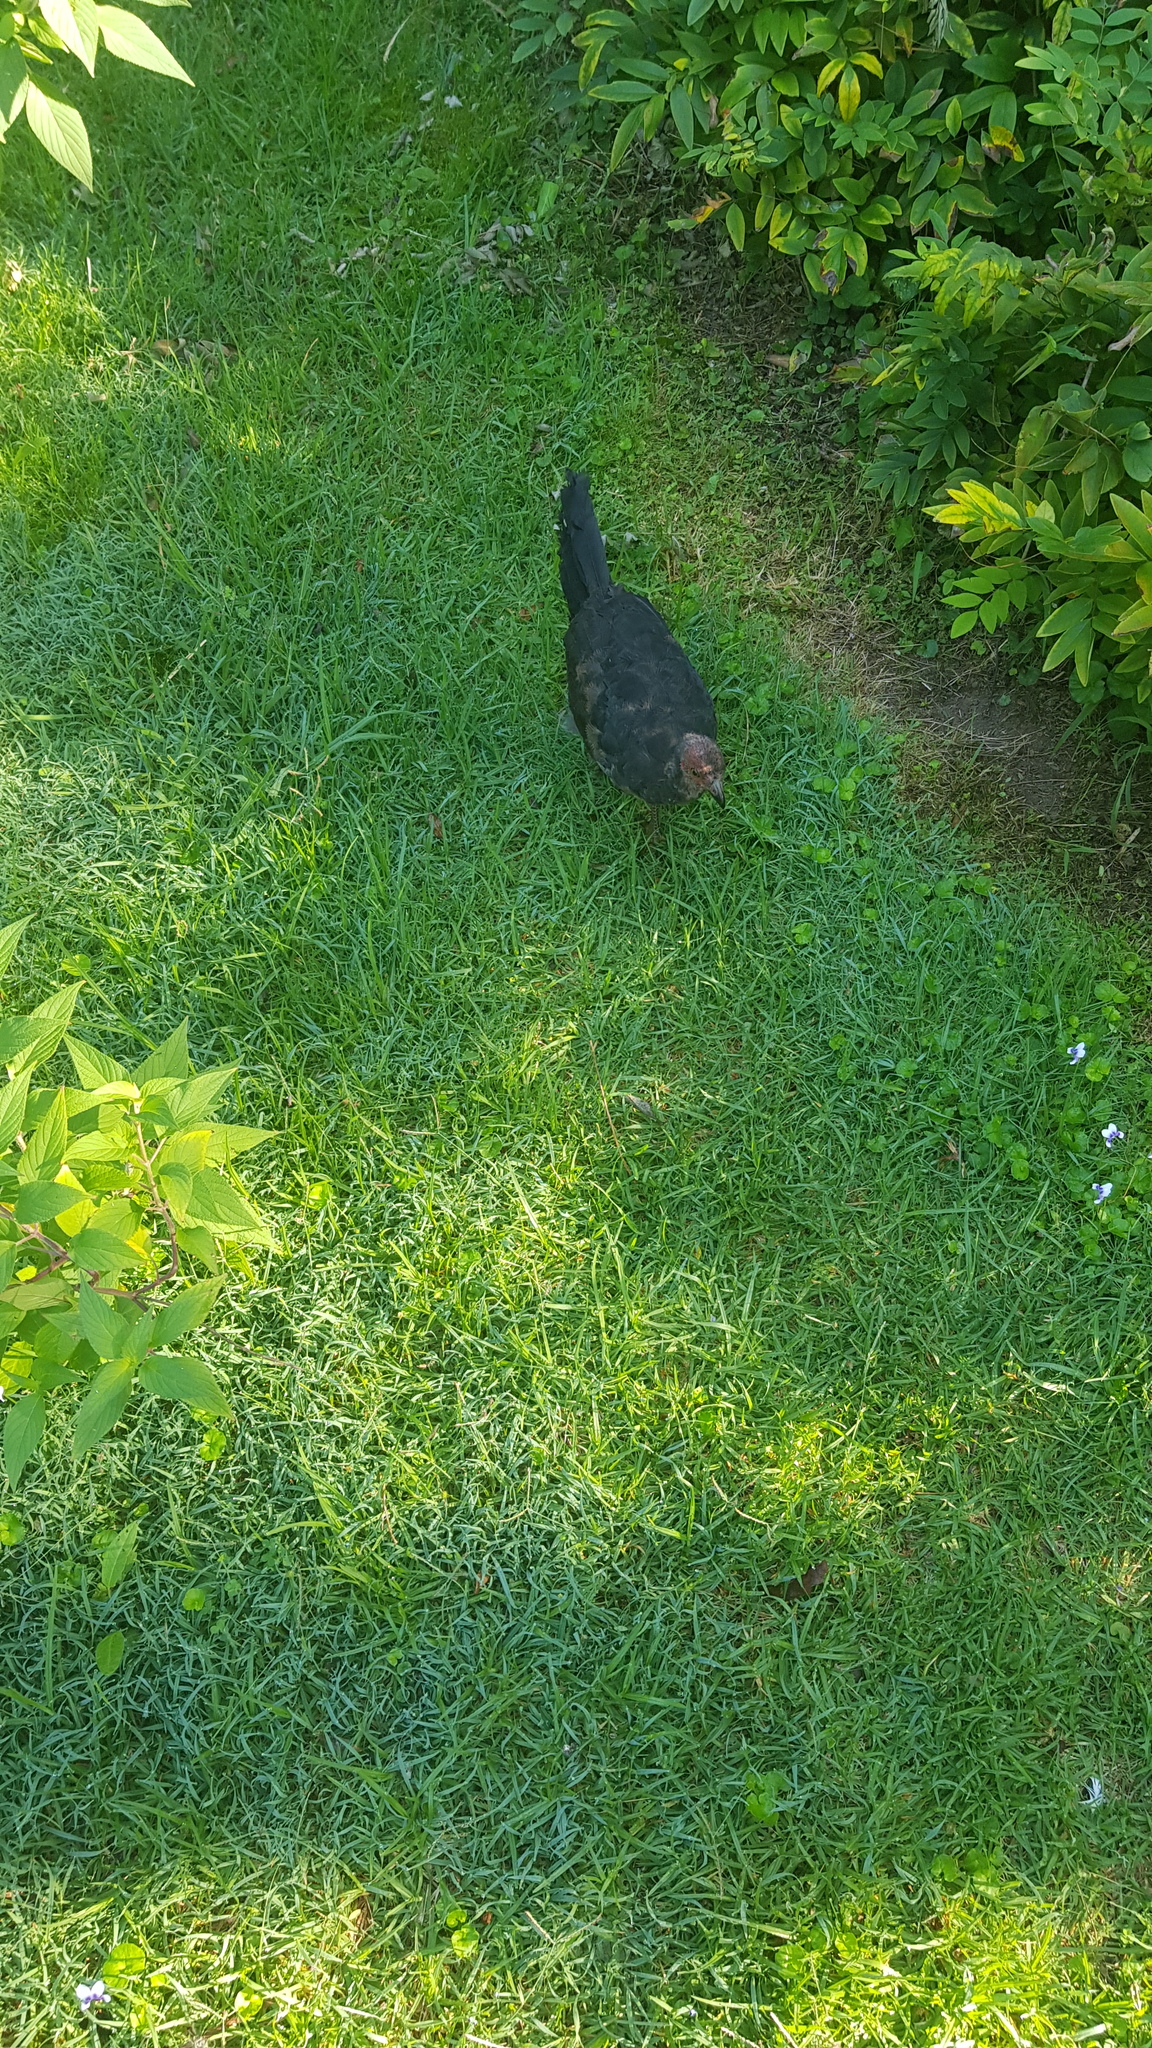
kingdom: Animalia
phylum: Chordata
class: Aves
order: Galliformes
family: Megapodiidae
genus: Alectura
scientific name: Alectura lathami
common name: Australian brushturkey
